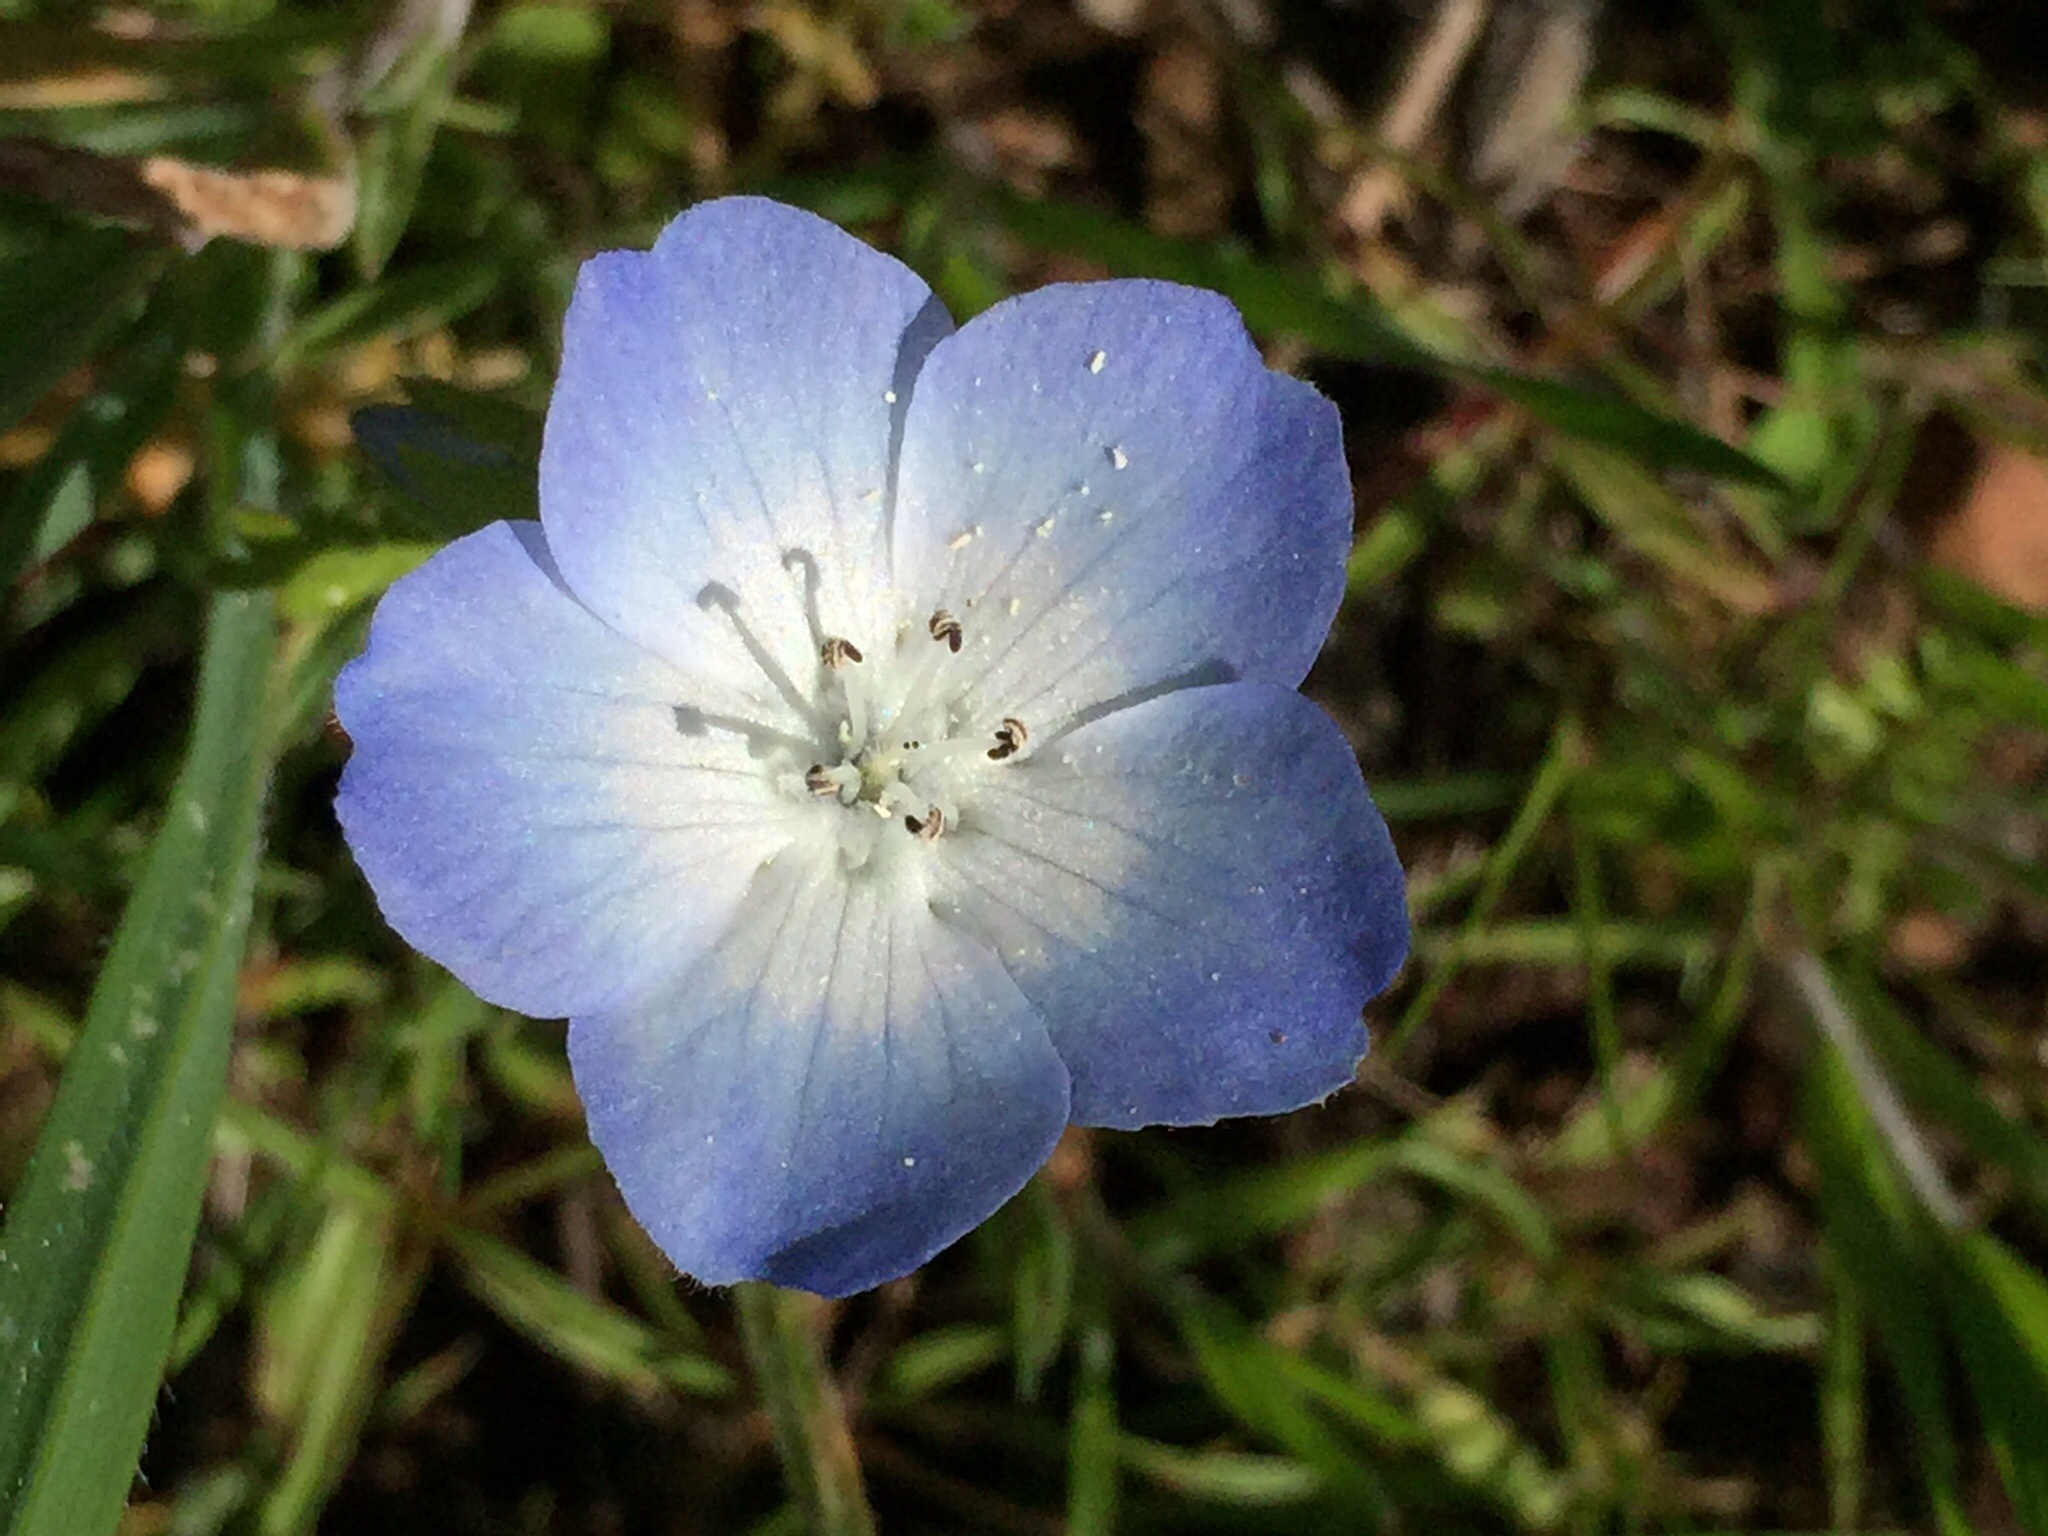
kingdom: Plantae
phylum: Tracheophyta
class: Magnoliopsida
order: Boraginales
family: Hydrophyllaceae
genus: Nemophila
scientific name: Nemophila menziesii
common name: Baby's-blue-eyes
